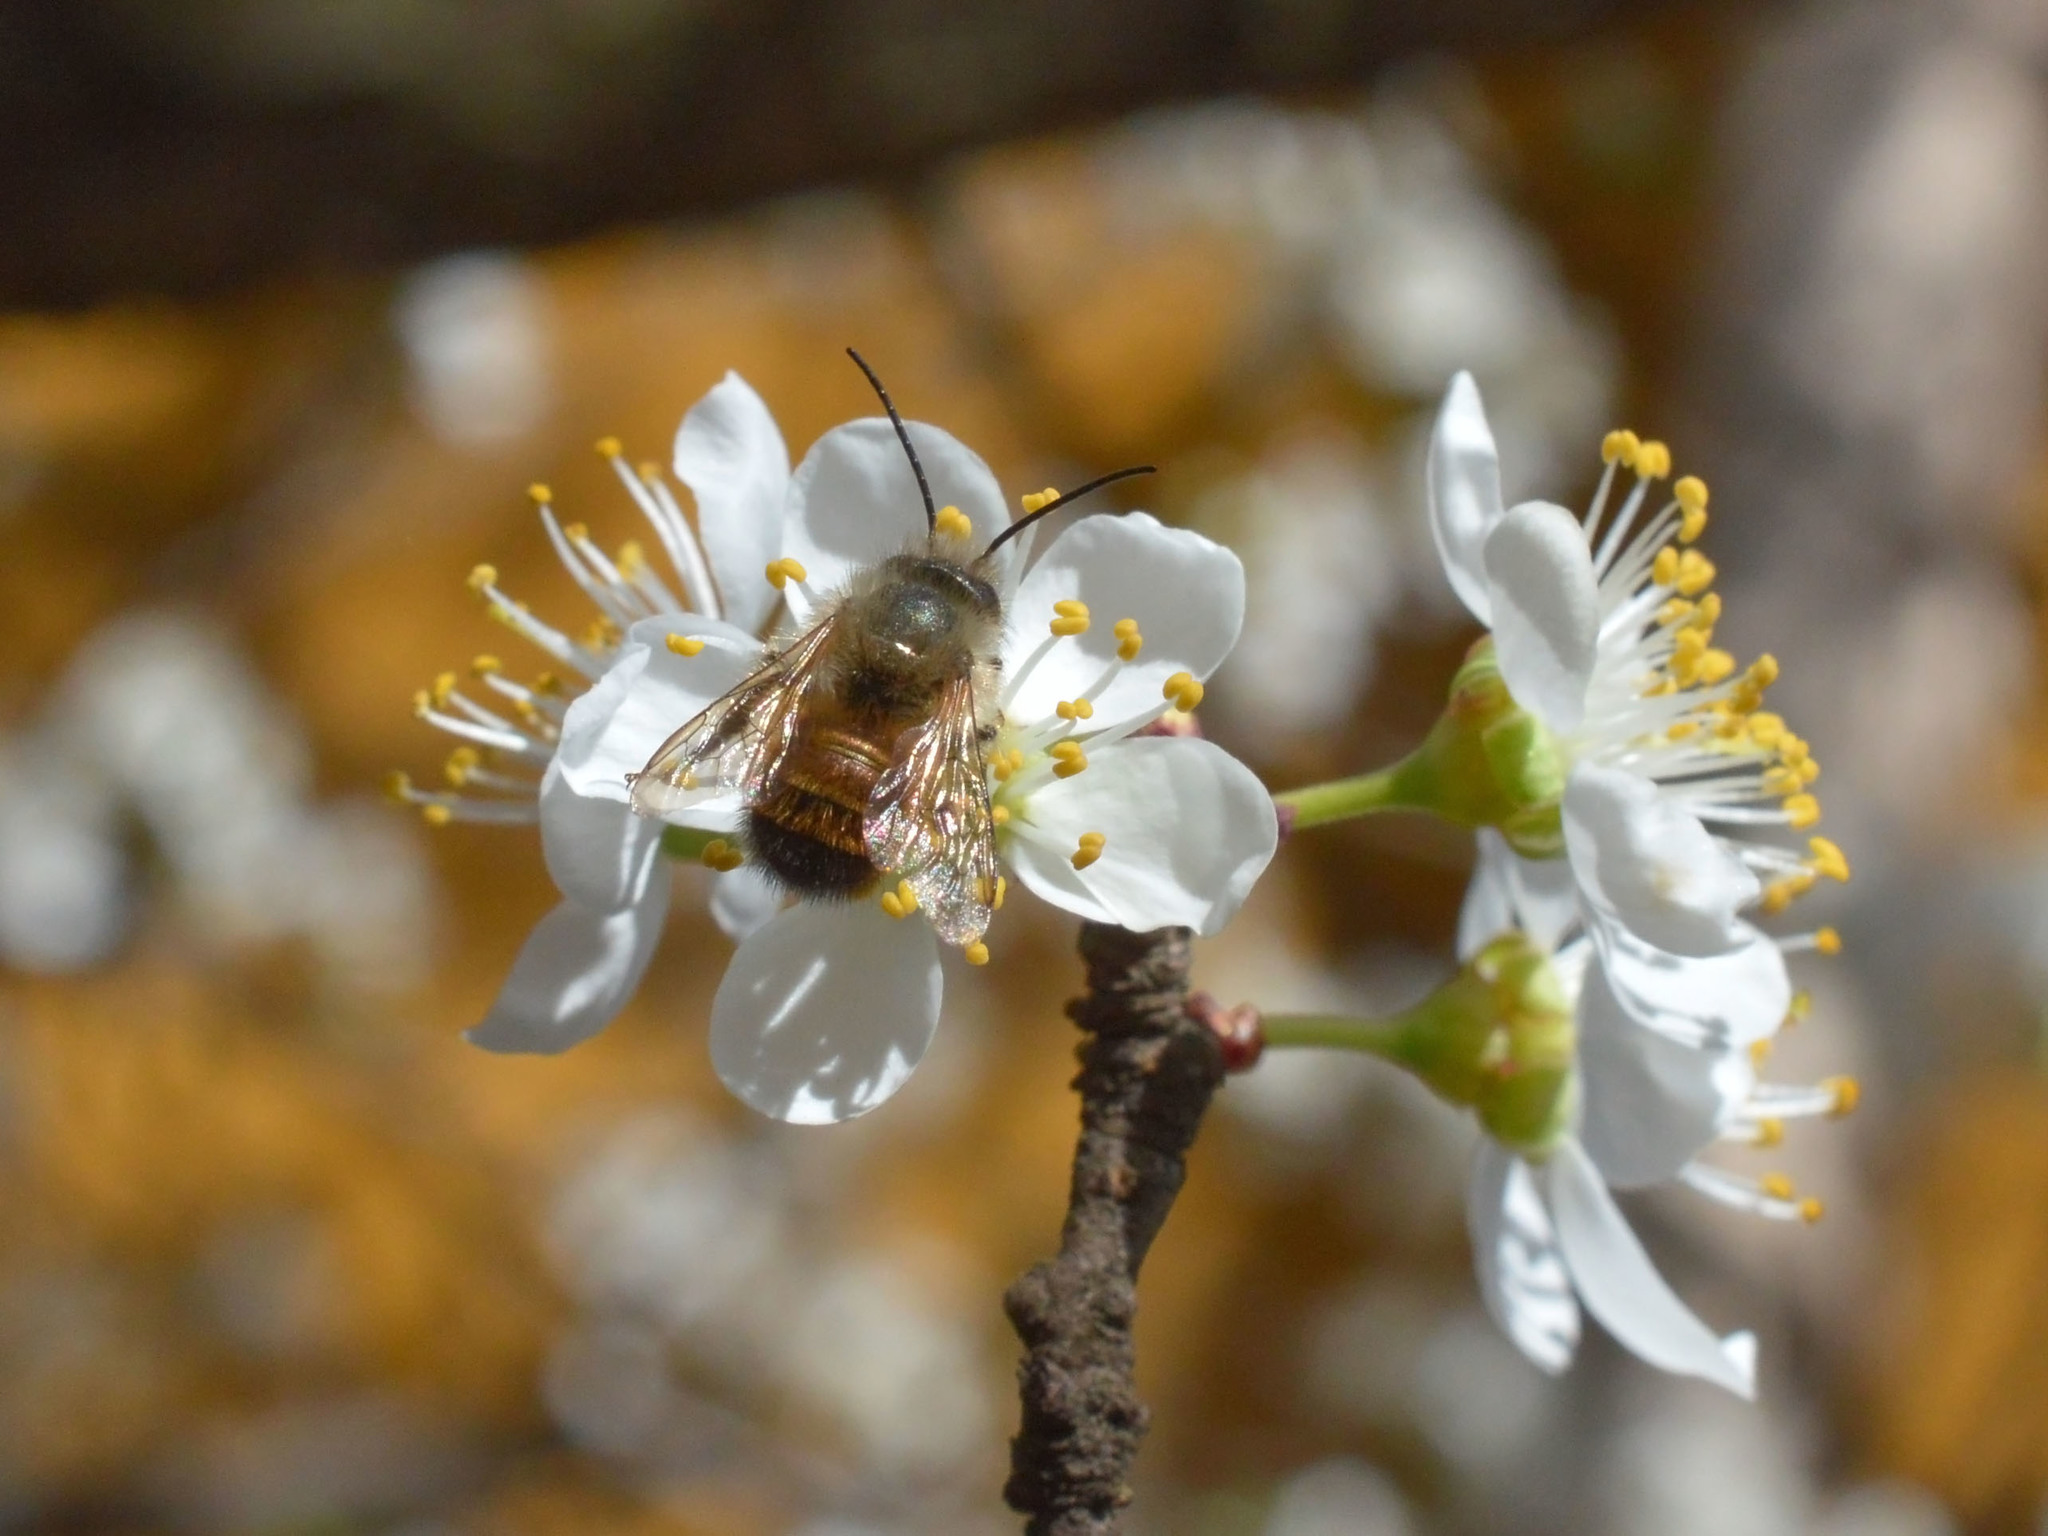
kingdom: Animalia
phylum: Arthropoda
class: Insecta
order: Hymenoptera
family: Megachilidae
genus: Osmia
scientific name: Osmia bicornis
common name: Red mason bee
